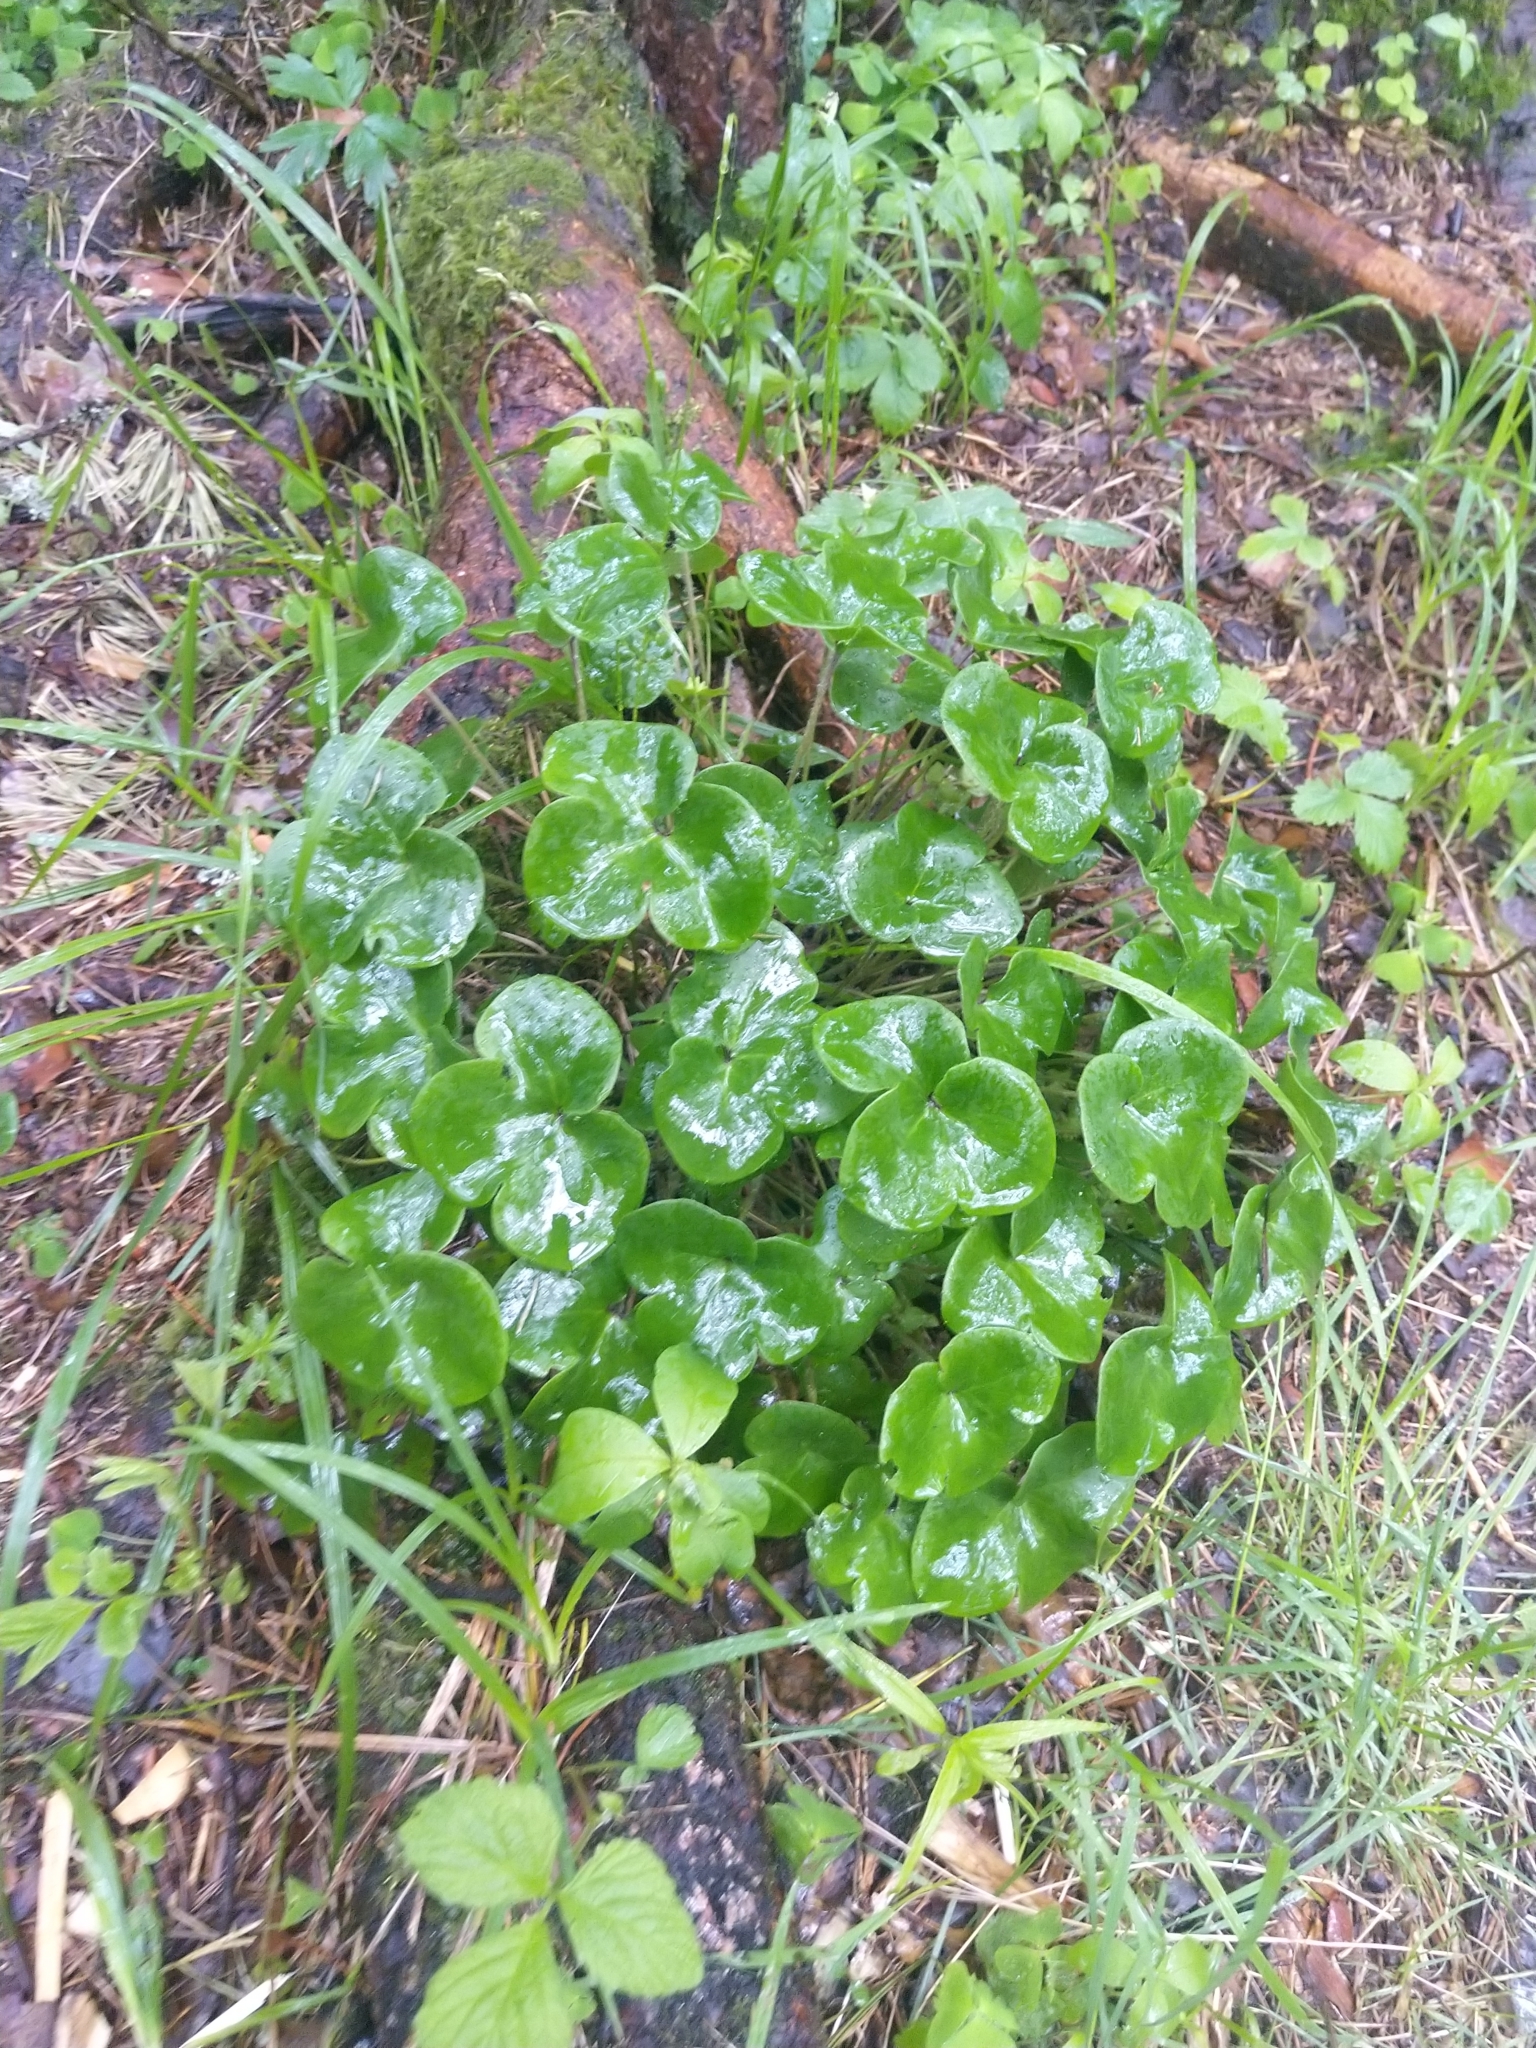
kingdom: Plantae
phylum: Tracheophyta
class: Magnoliopsida
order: Ranunculales
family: Ranunculaceae
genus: Hepatica
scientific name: Hepatica nobilis
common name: Liverleaf
